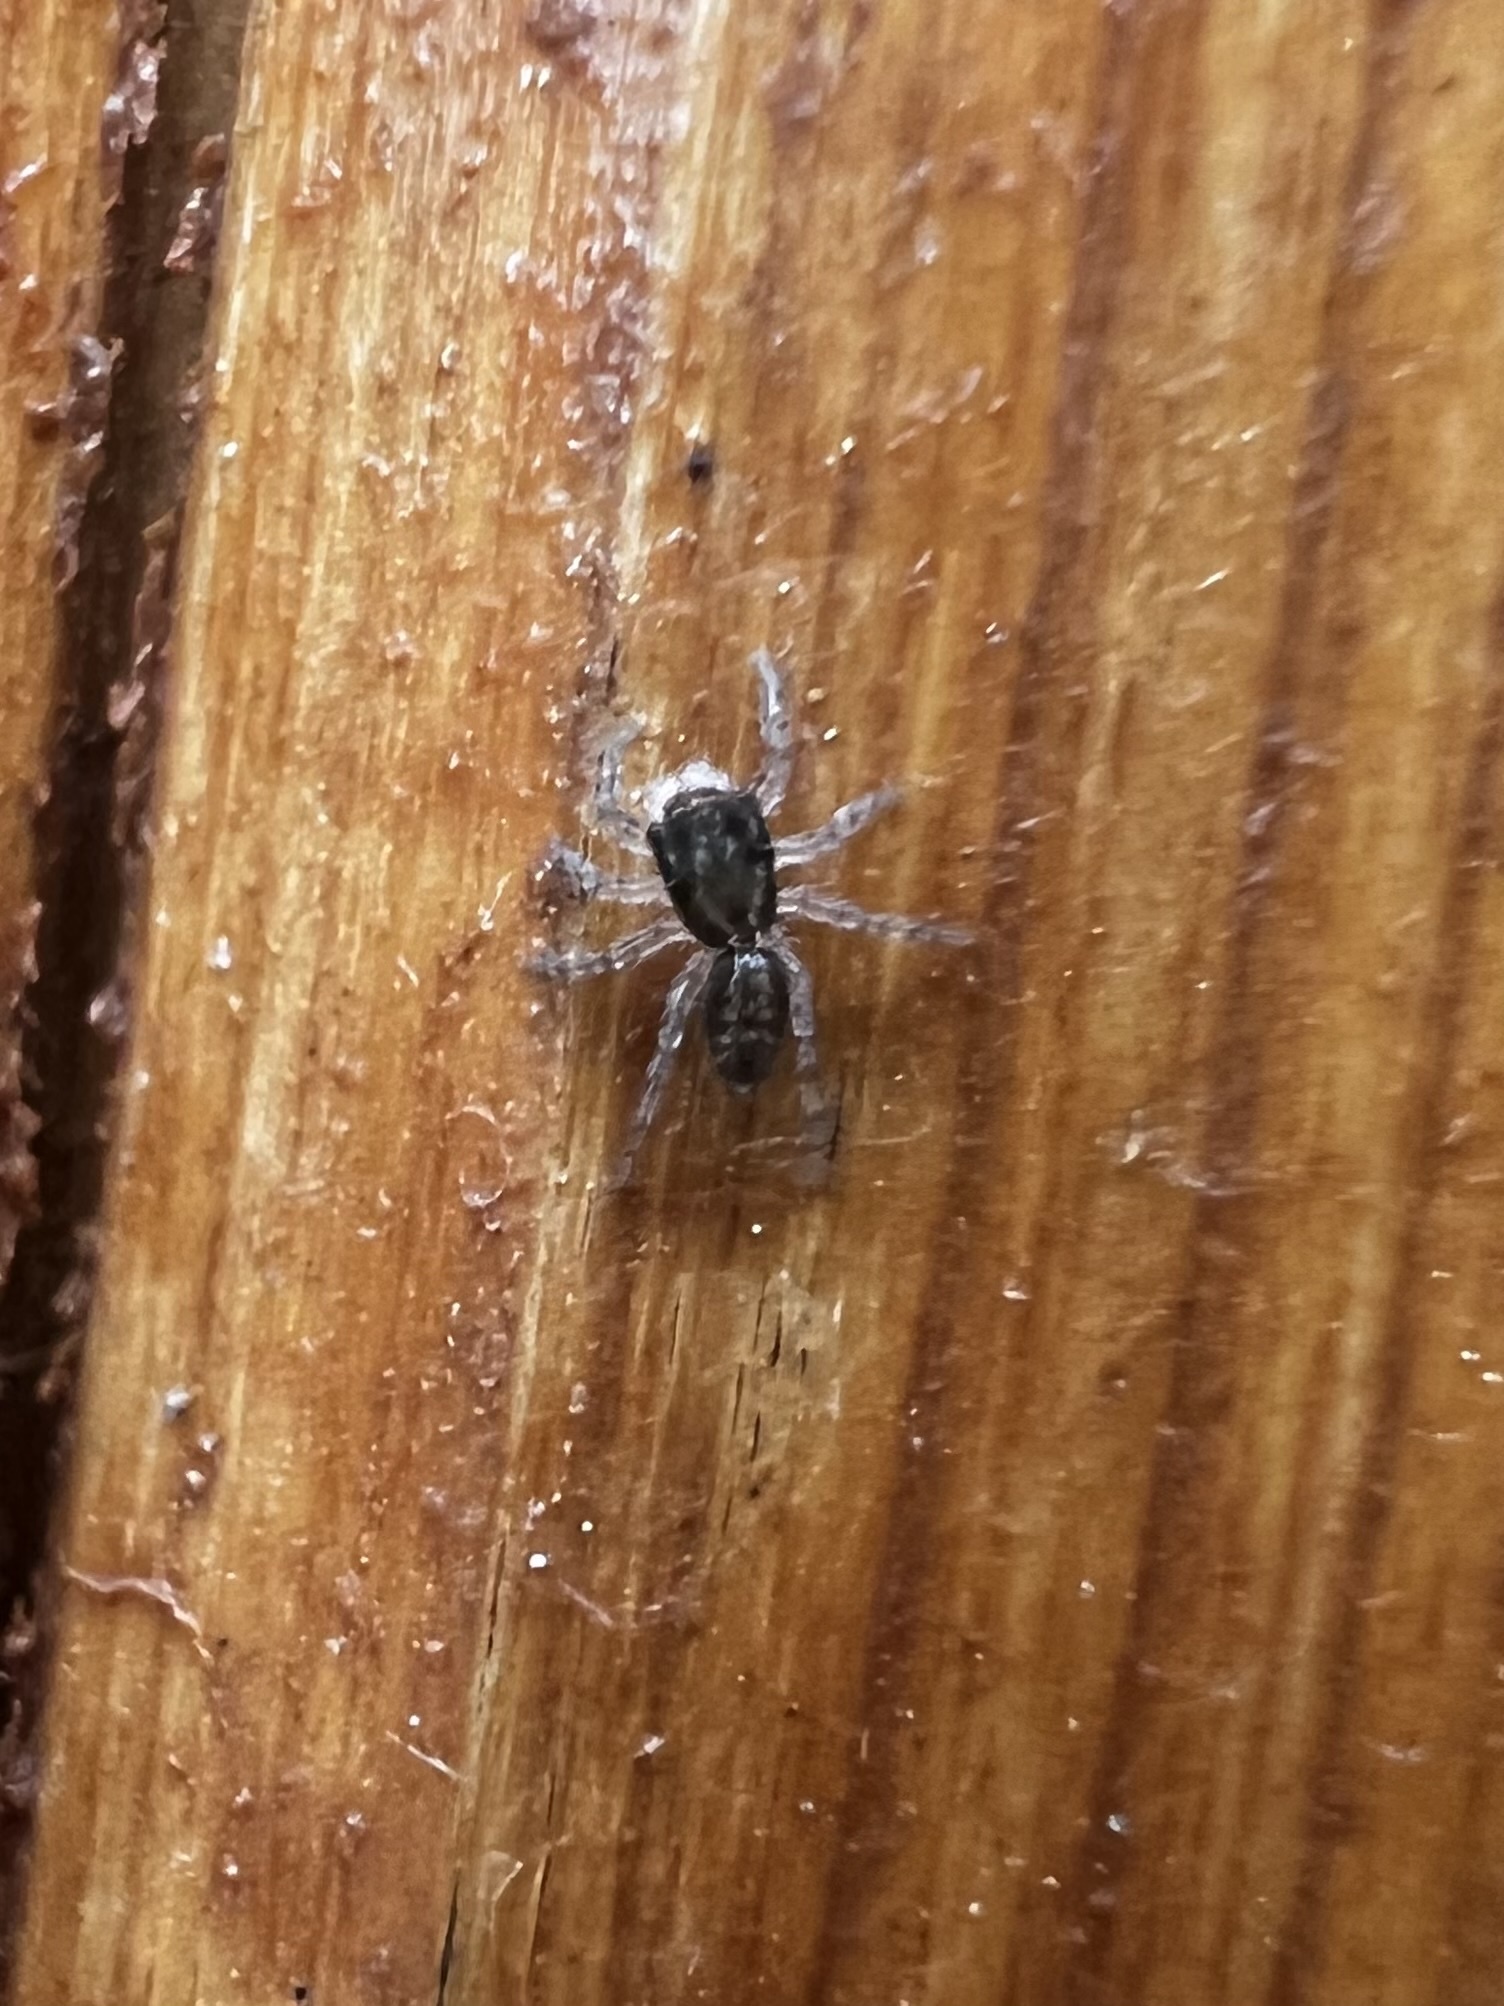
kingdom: Animalia
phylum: Arthropoda
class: Arachnida
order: Araneae
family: Salticidae
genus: Platycryptus
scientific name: Platycryptus californicus
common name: Jumping spiders
